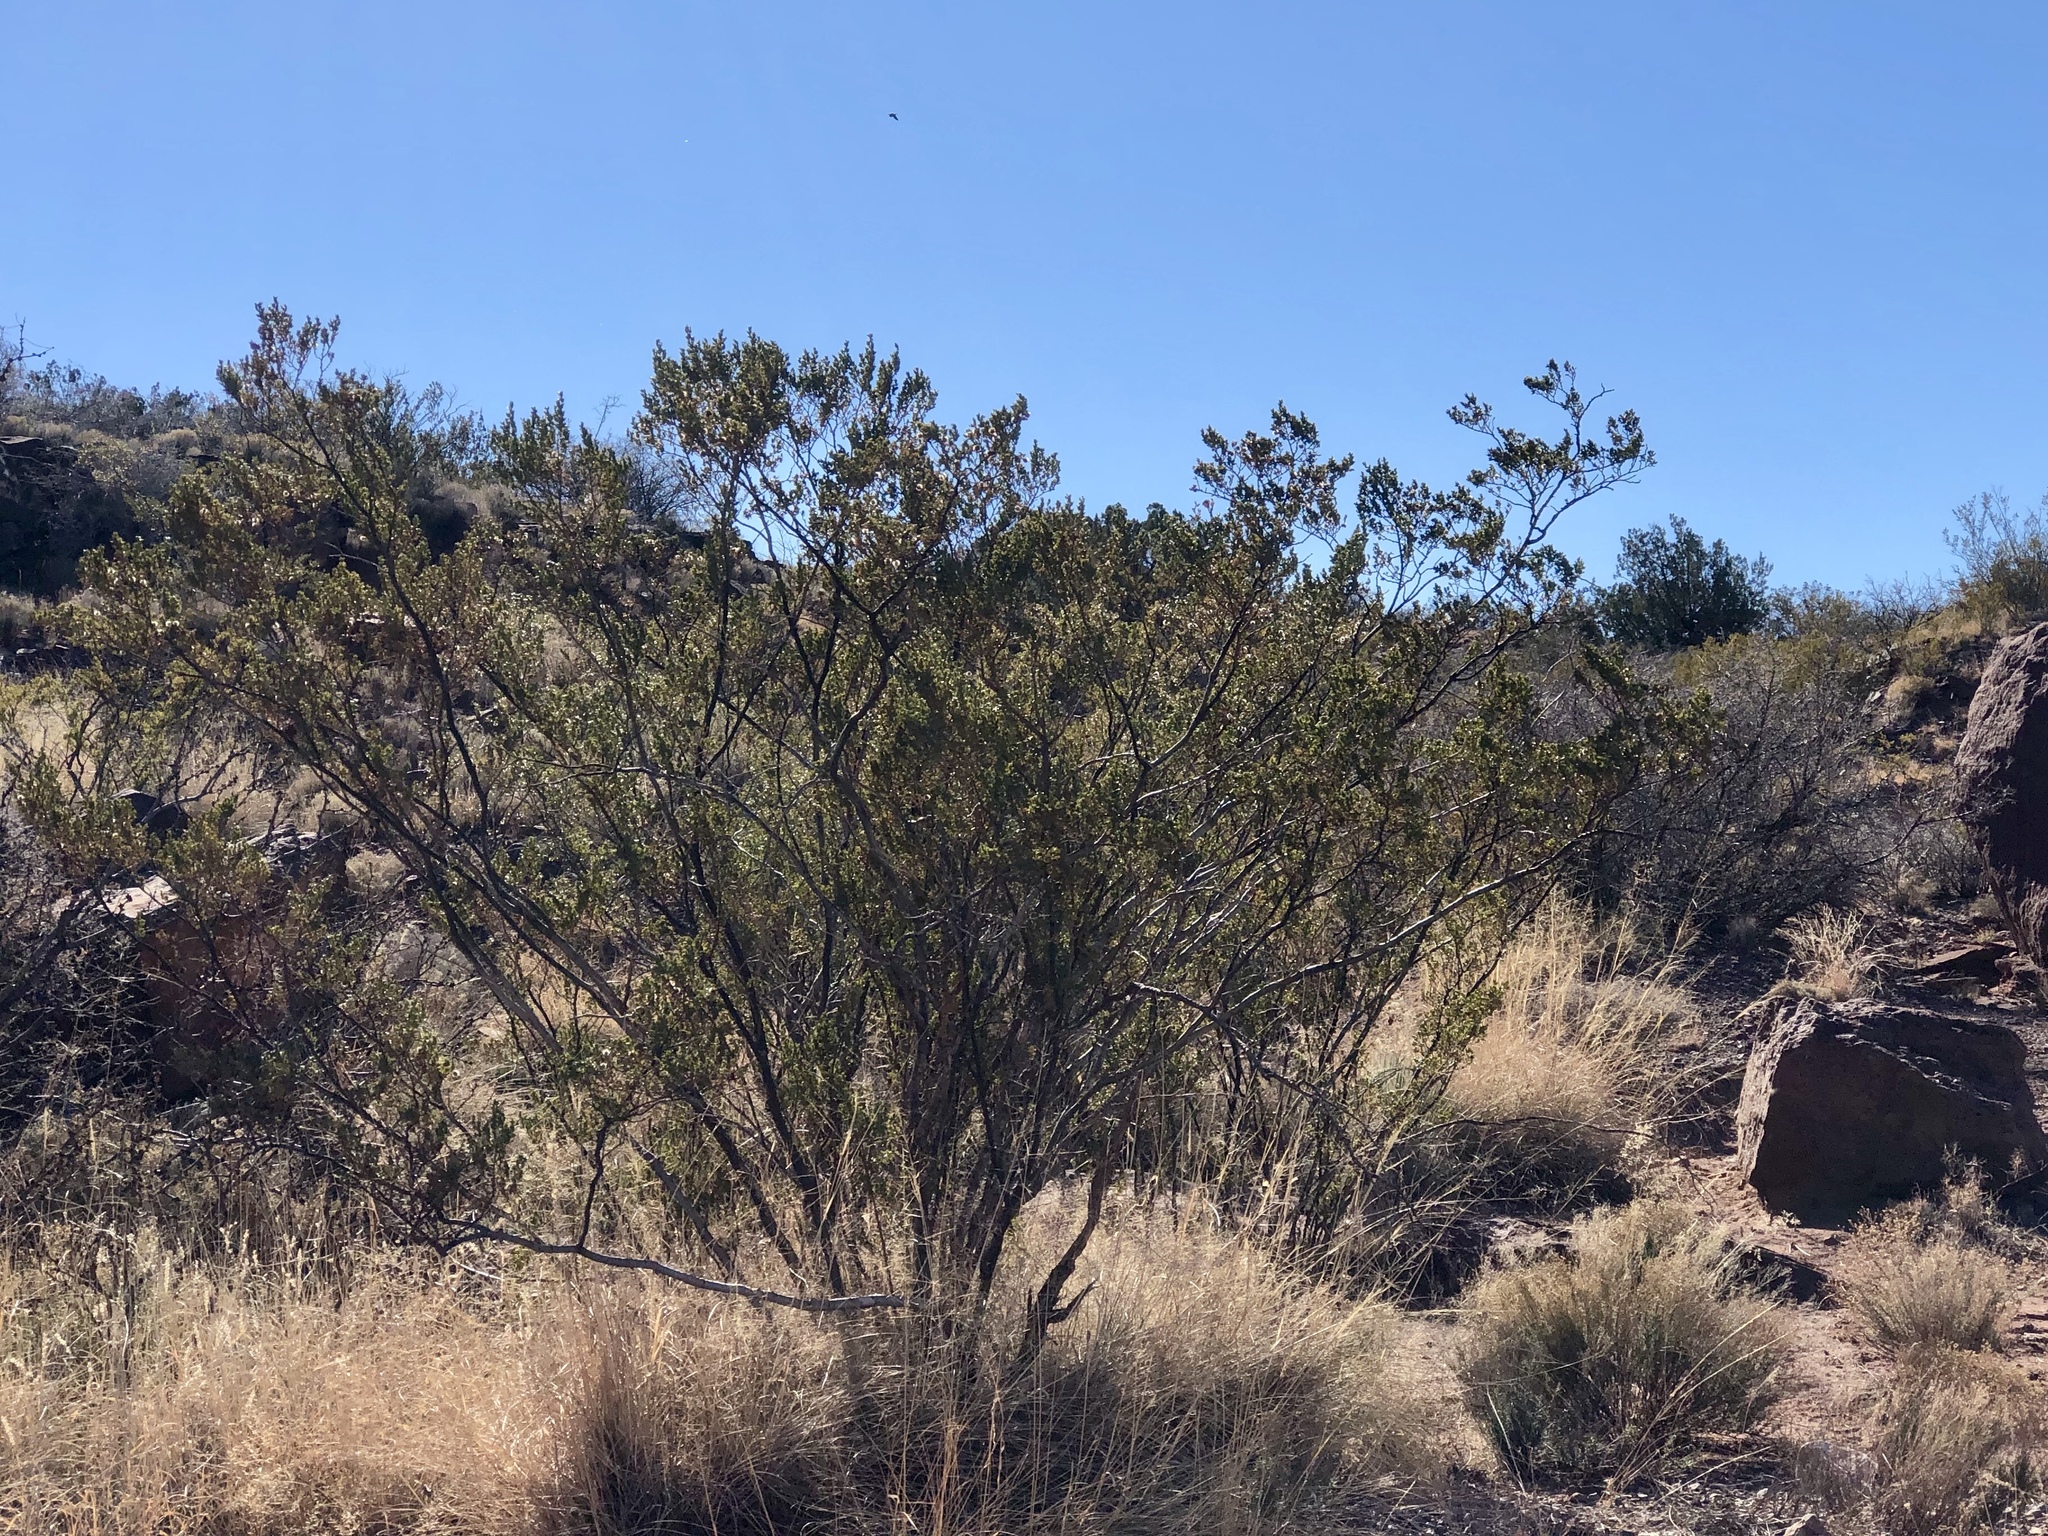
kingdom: Plantae
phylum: Tracheophyta
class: Magnoliopsida
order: Zygophyllales
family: Zygophyllaceae
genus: Larrea
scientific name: Larrea tridentata
